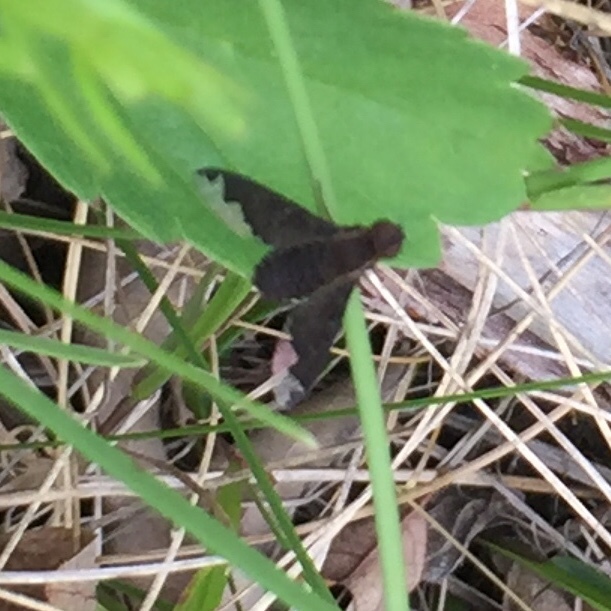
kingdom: Animalia
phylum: Arthropoda
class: Insecta
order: Diptera
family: Bombyliidae
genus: Hemipenthes
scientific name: Hemipenthes sinuosus
